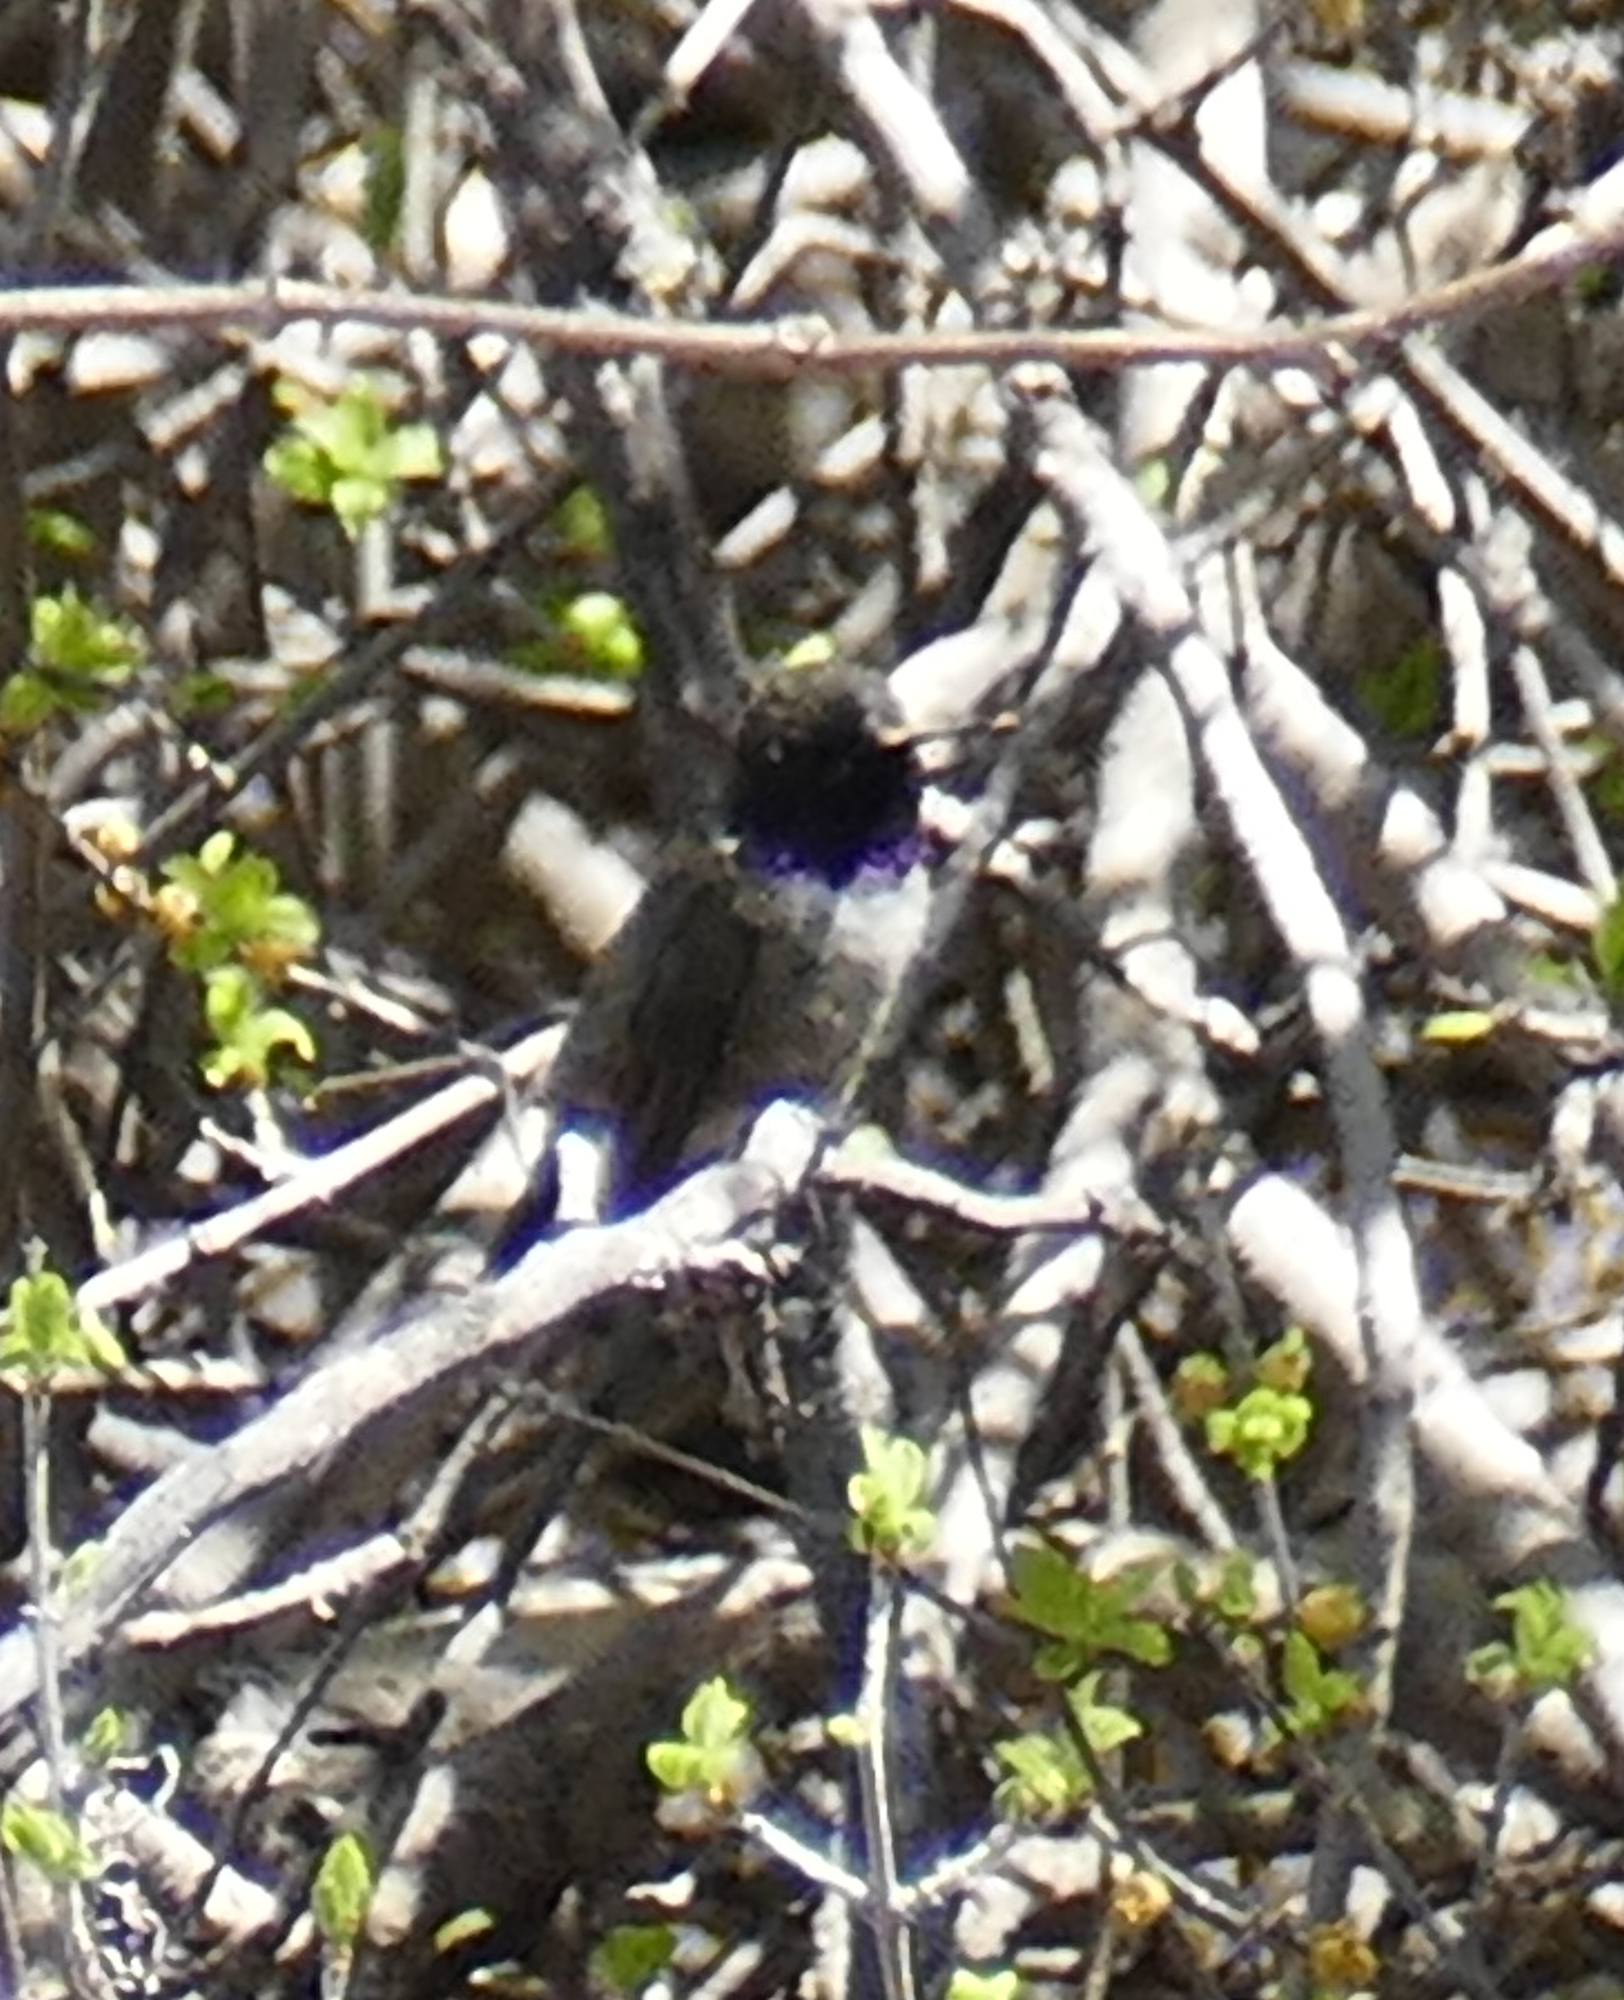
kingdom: Animalia
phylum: Chordata
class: Aves
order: Apodiformes
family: Trochilidae
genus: Archilochus
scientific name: Archilochus alexandri
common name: Black-chinned hummingbird
